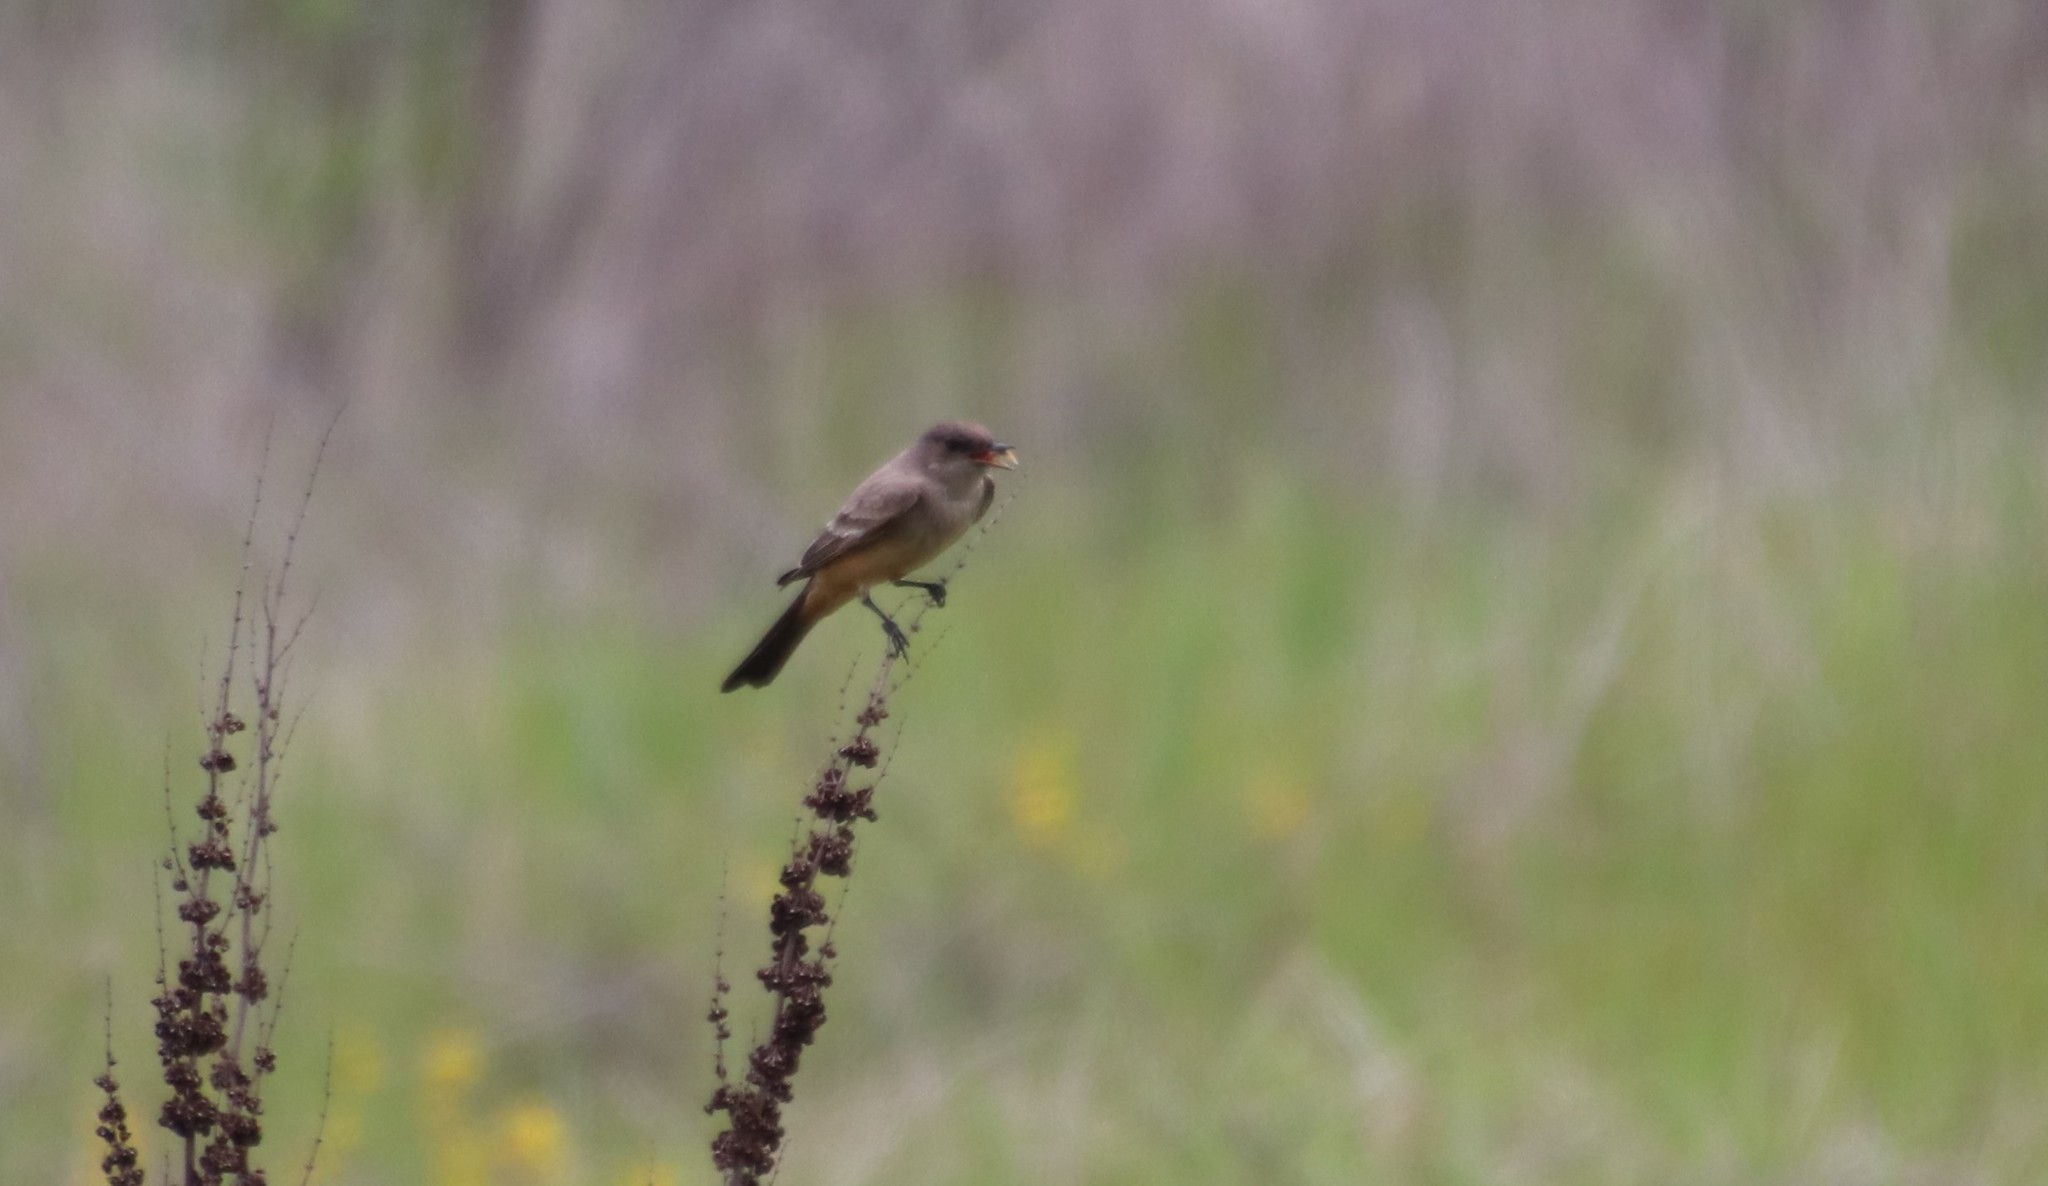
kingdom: Animalia
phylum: Chordata
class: Aves
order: Passeriformes
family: Tyrannidae
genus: Sayornis
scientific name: Sayornis saya
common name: Say's phoebe
